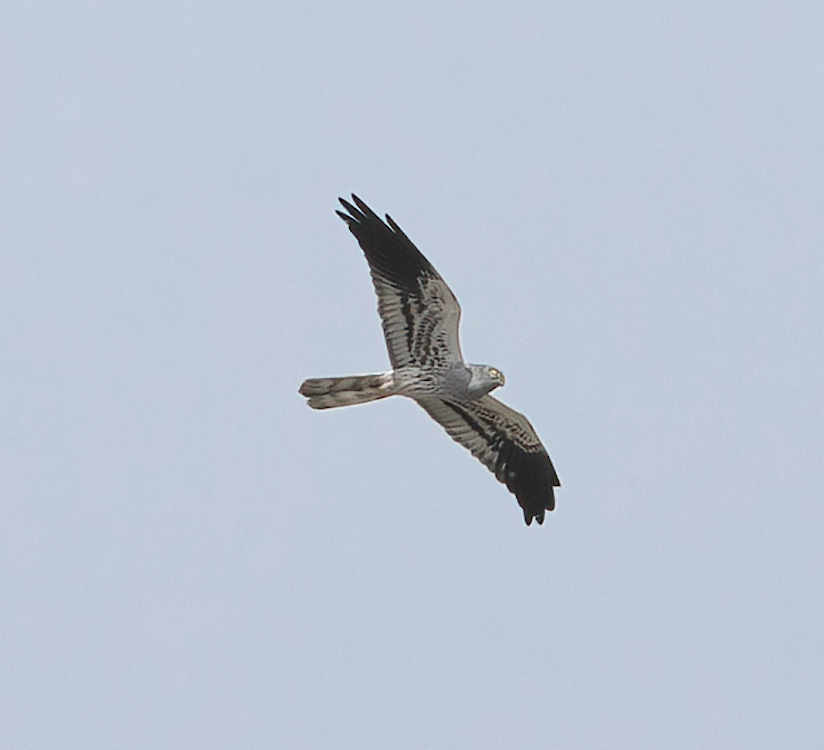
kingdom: Animalia
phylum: Chordata
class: Aves
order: Accipitriformes
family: Accipitridae
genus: Circus
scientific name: Circus pygargus
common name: Montagu's harrier
